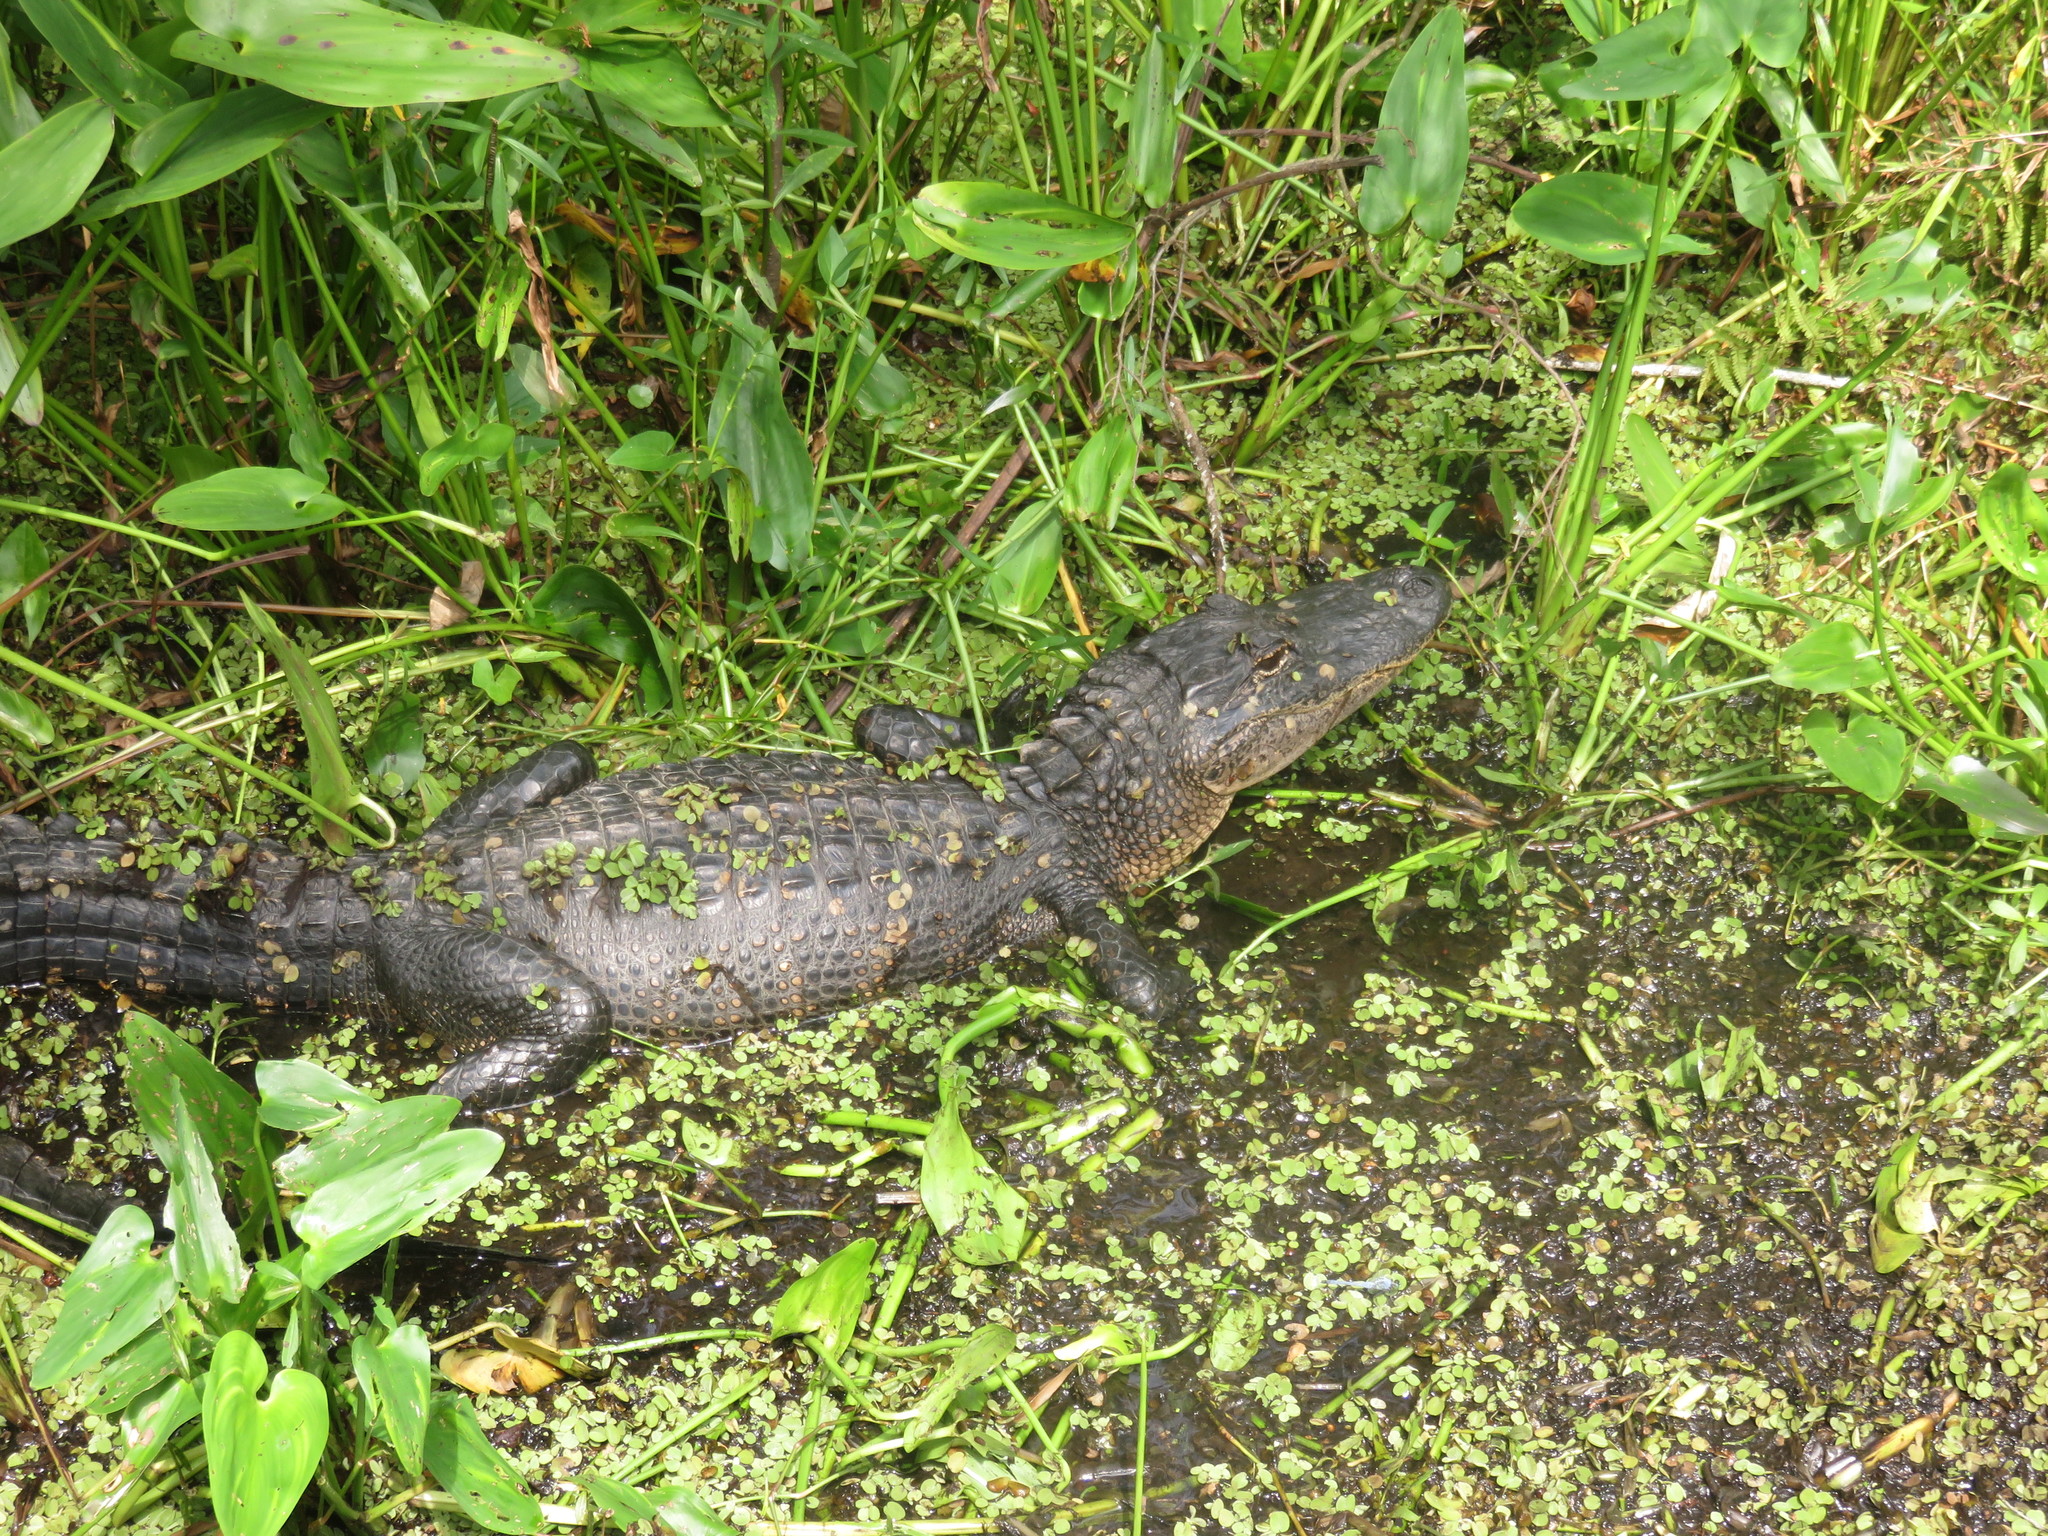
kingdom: Animalia
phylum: Chordata
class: Crocodylia
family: Alligatoridae
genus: Alligator
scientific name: Alligator mississippiensis
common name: American alligator
